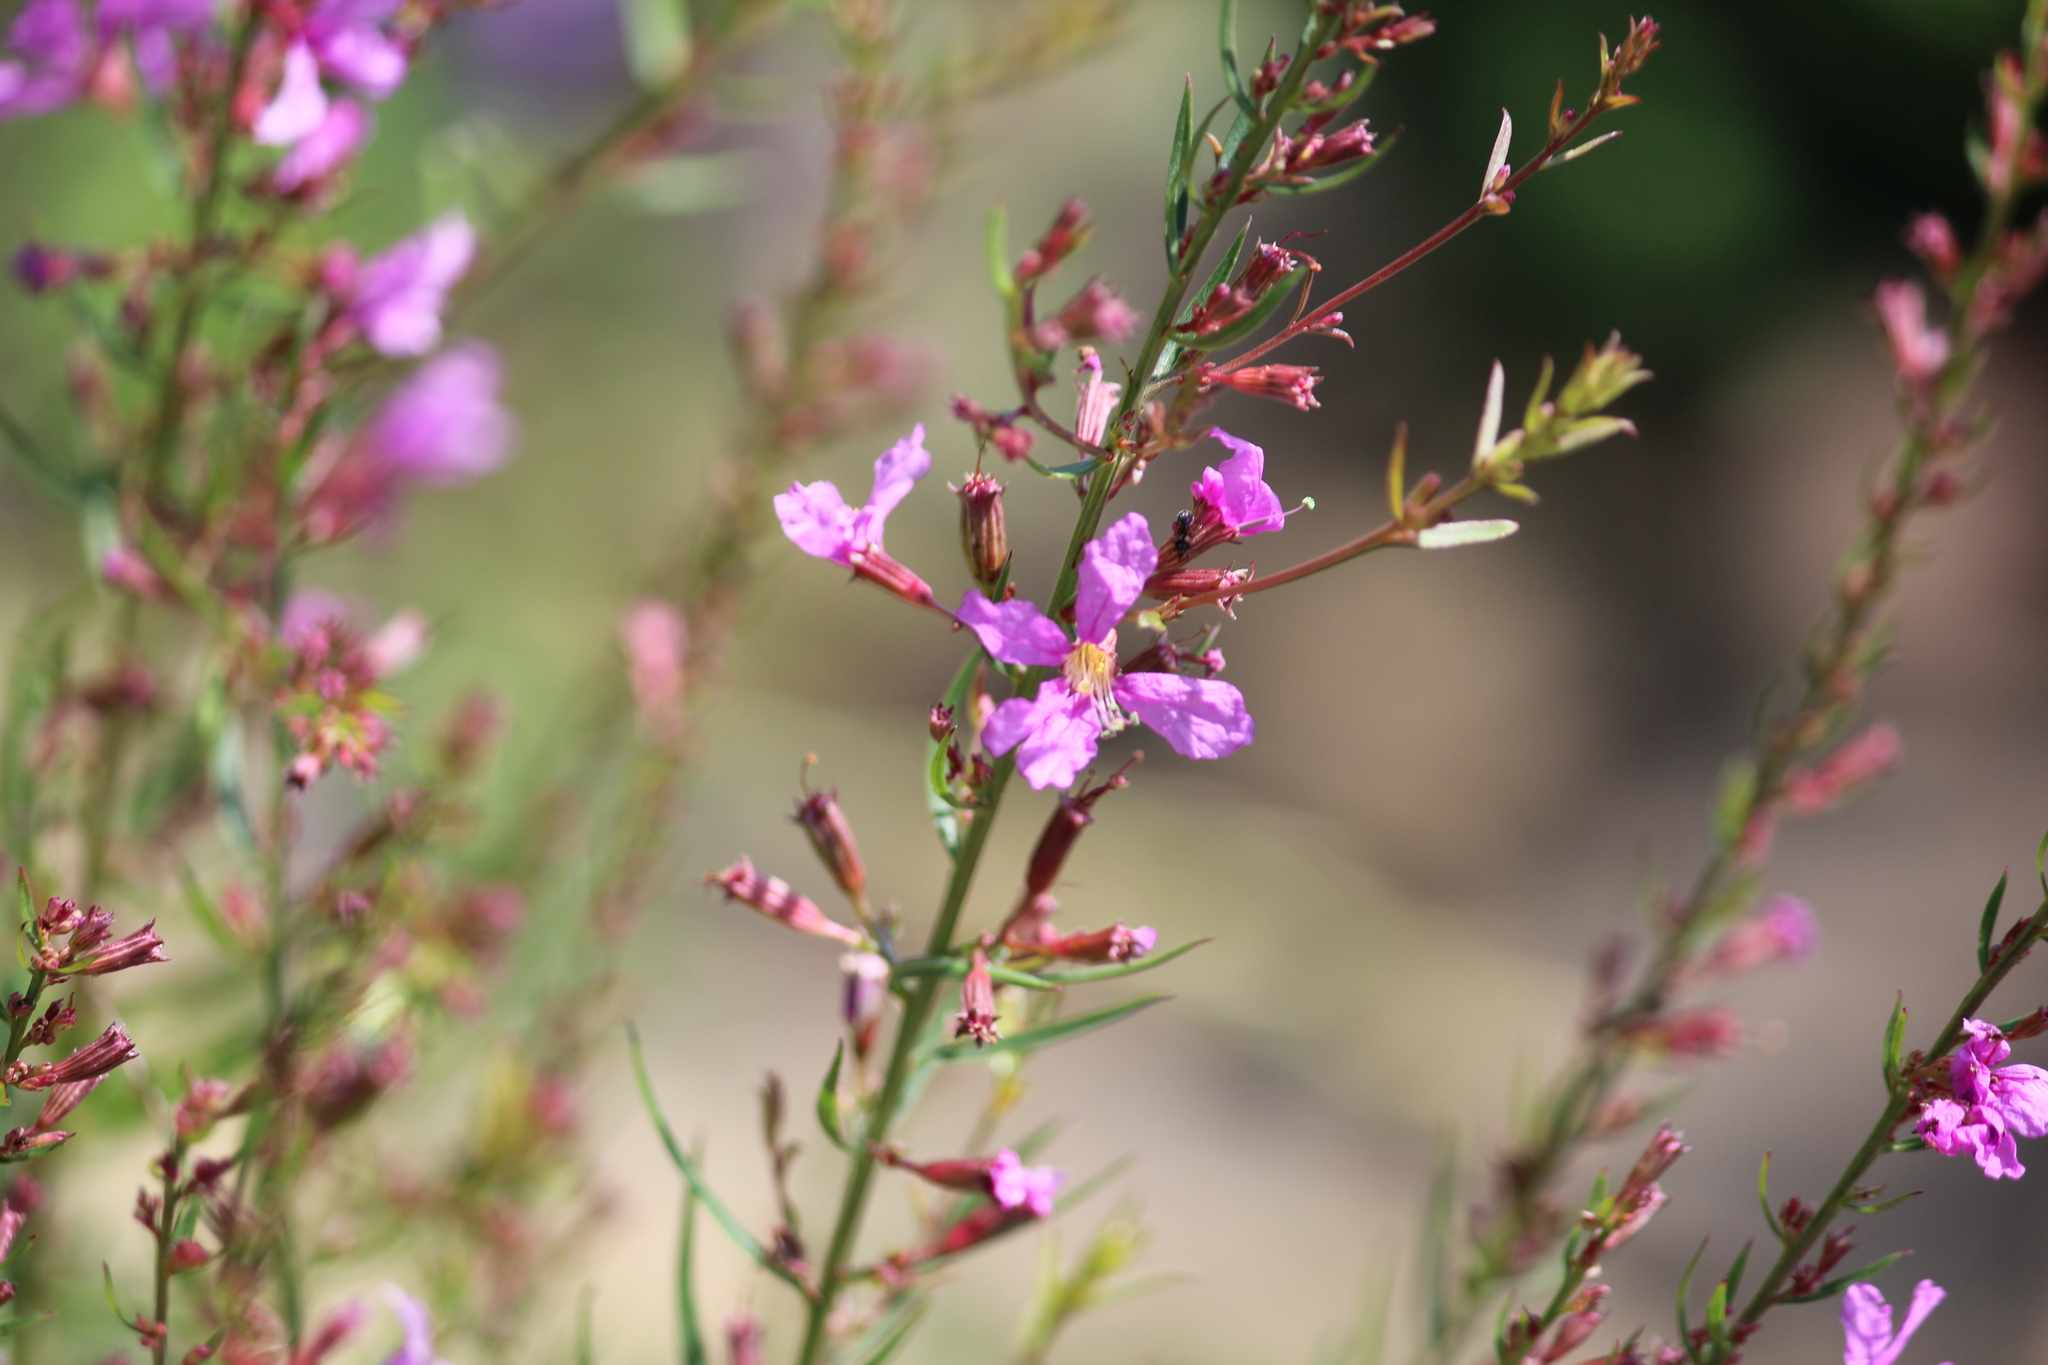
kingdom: Plantae
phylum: Tracheophyta
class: Magnoliopsida
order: Myrtales
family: Lythraceae
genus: Lythrum
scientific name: Lythrum virgatum
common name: European wand loosestrife
